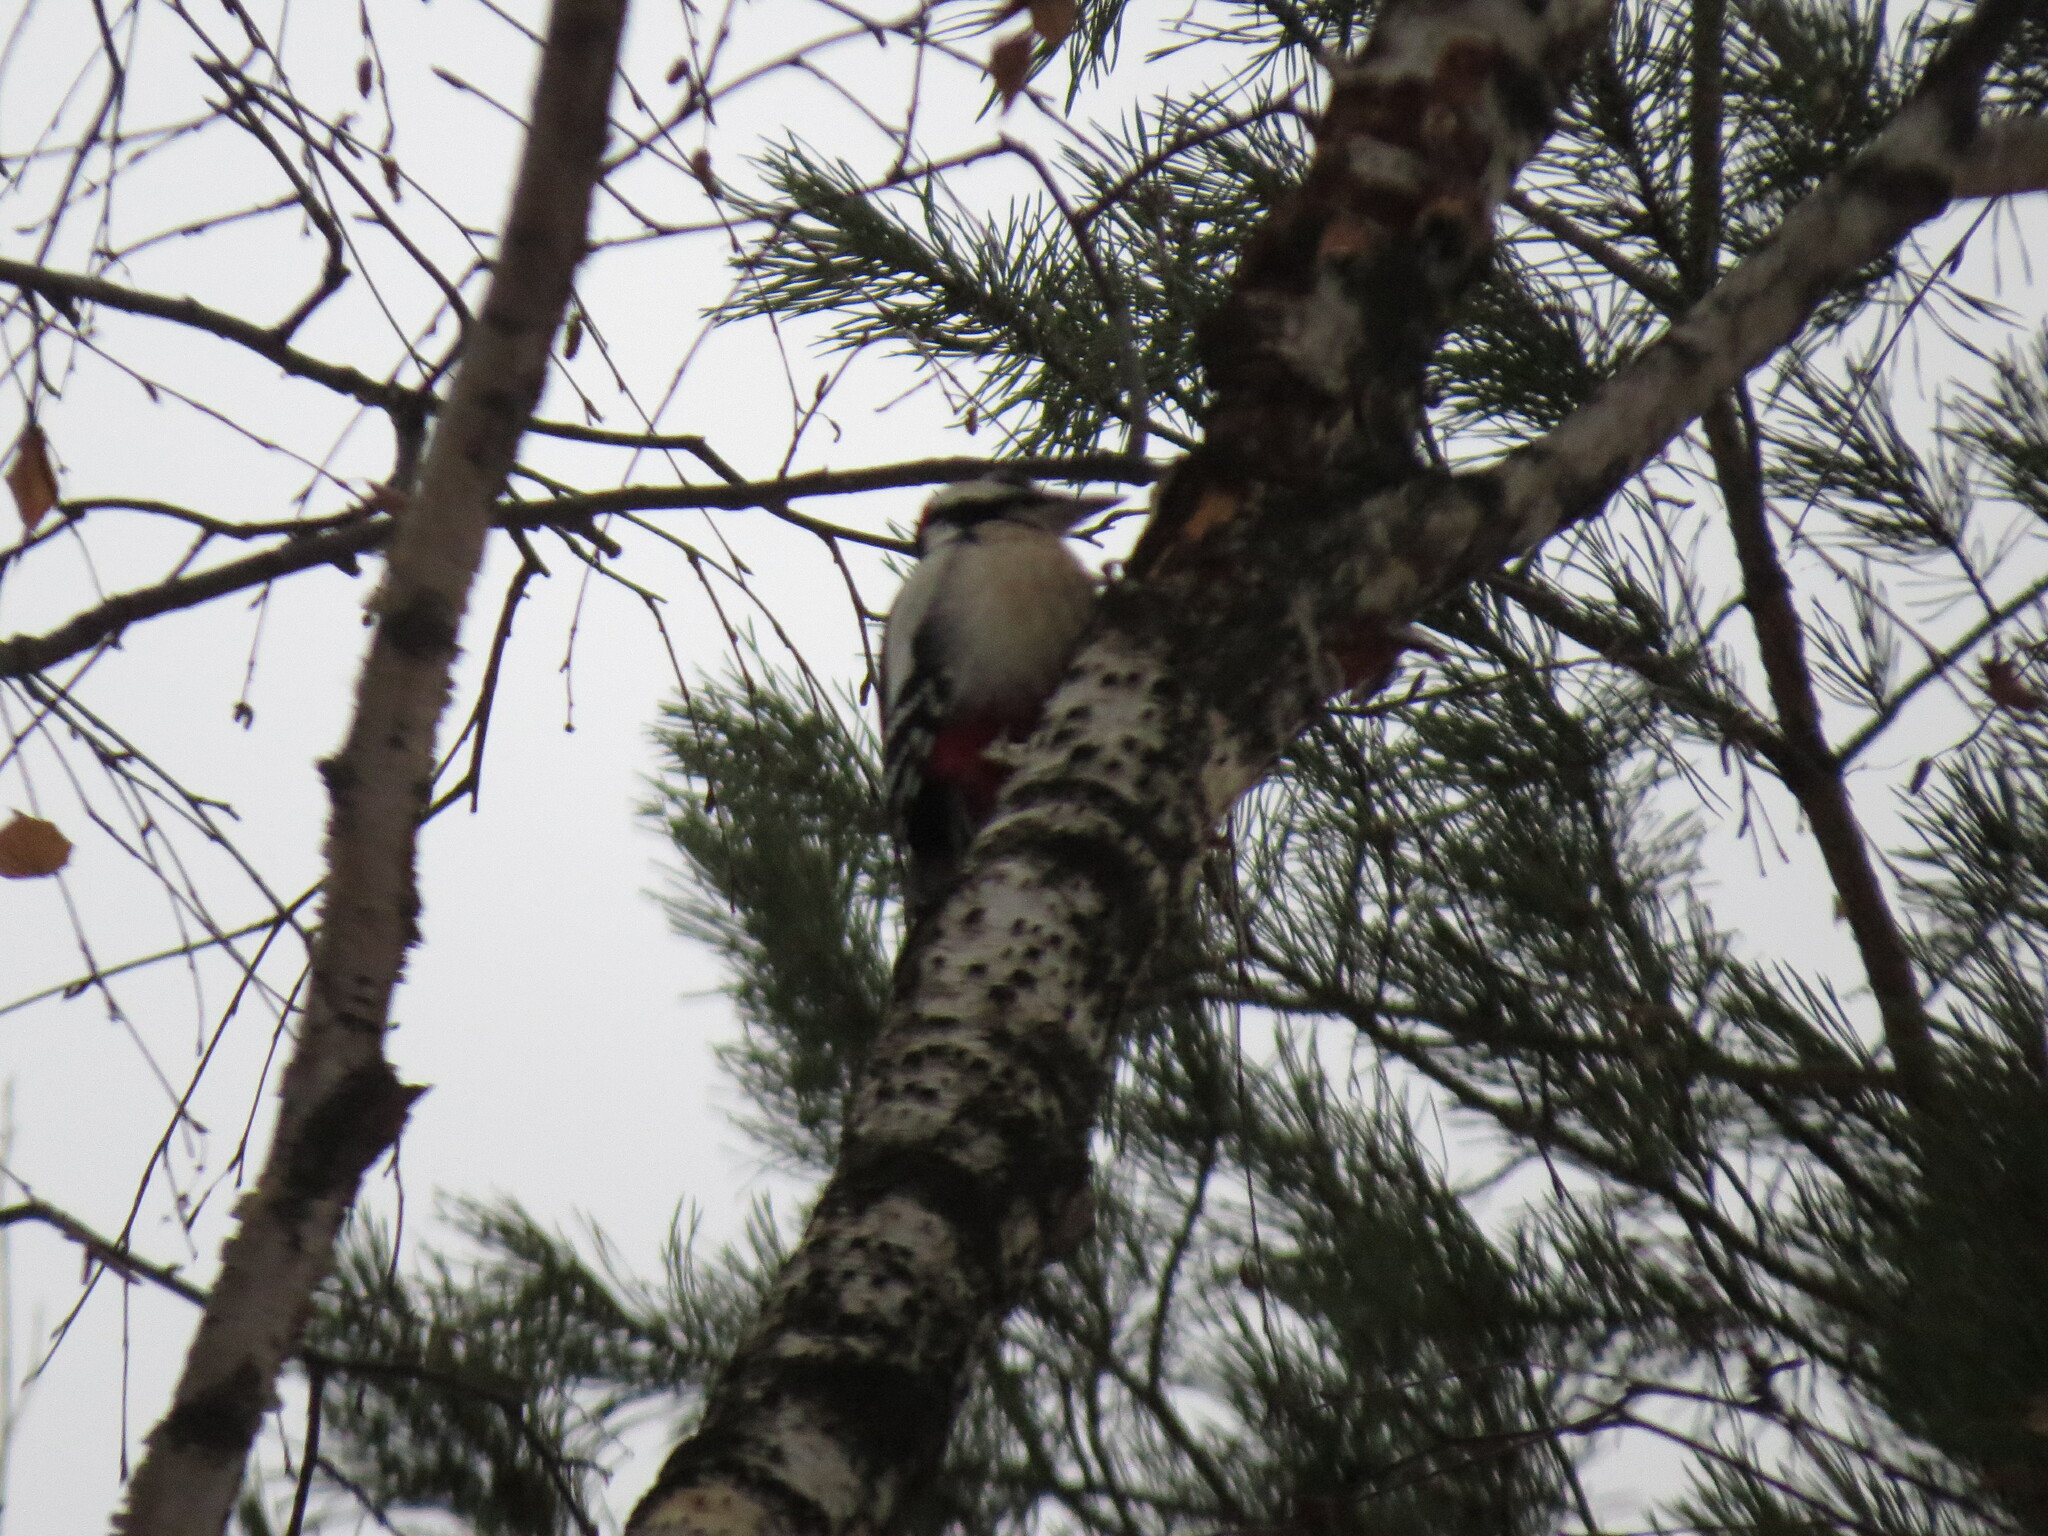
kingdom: Animalia
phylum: Chordata
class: Aves
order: Piciformes
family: Picidae
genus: Dendrocopos
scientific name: Dendrocopos major
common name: Great spotted woodpecker
